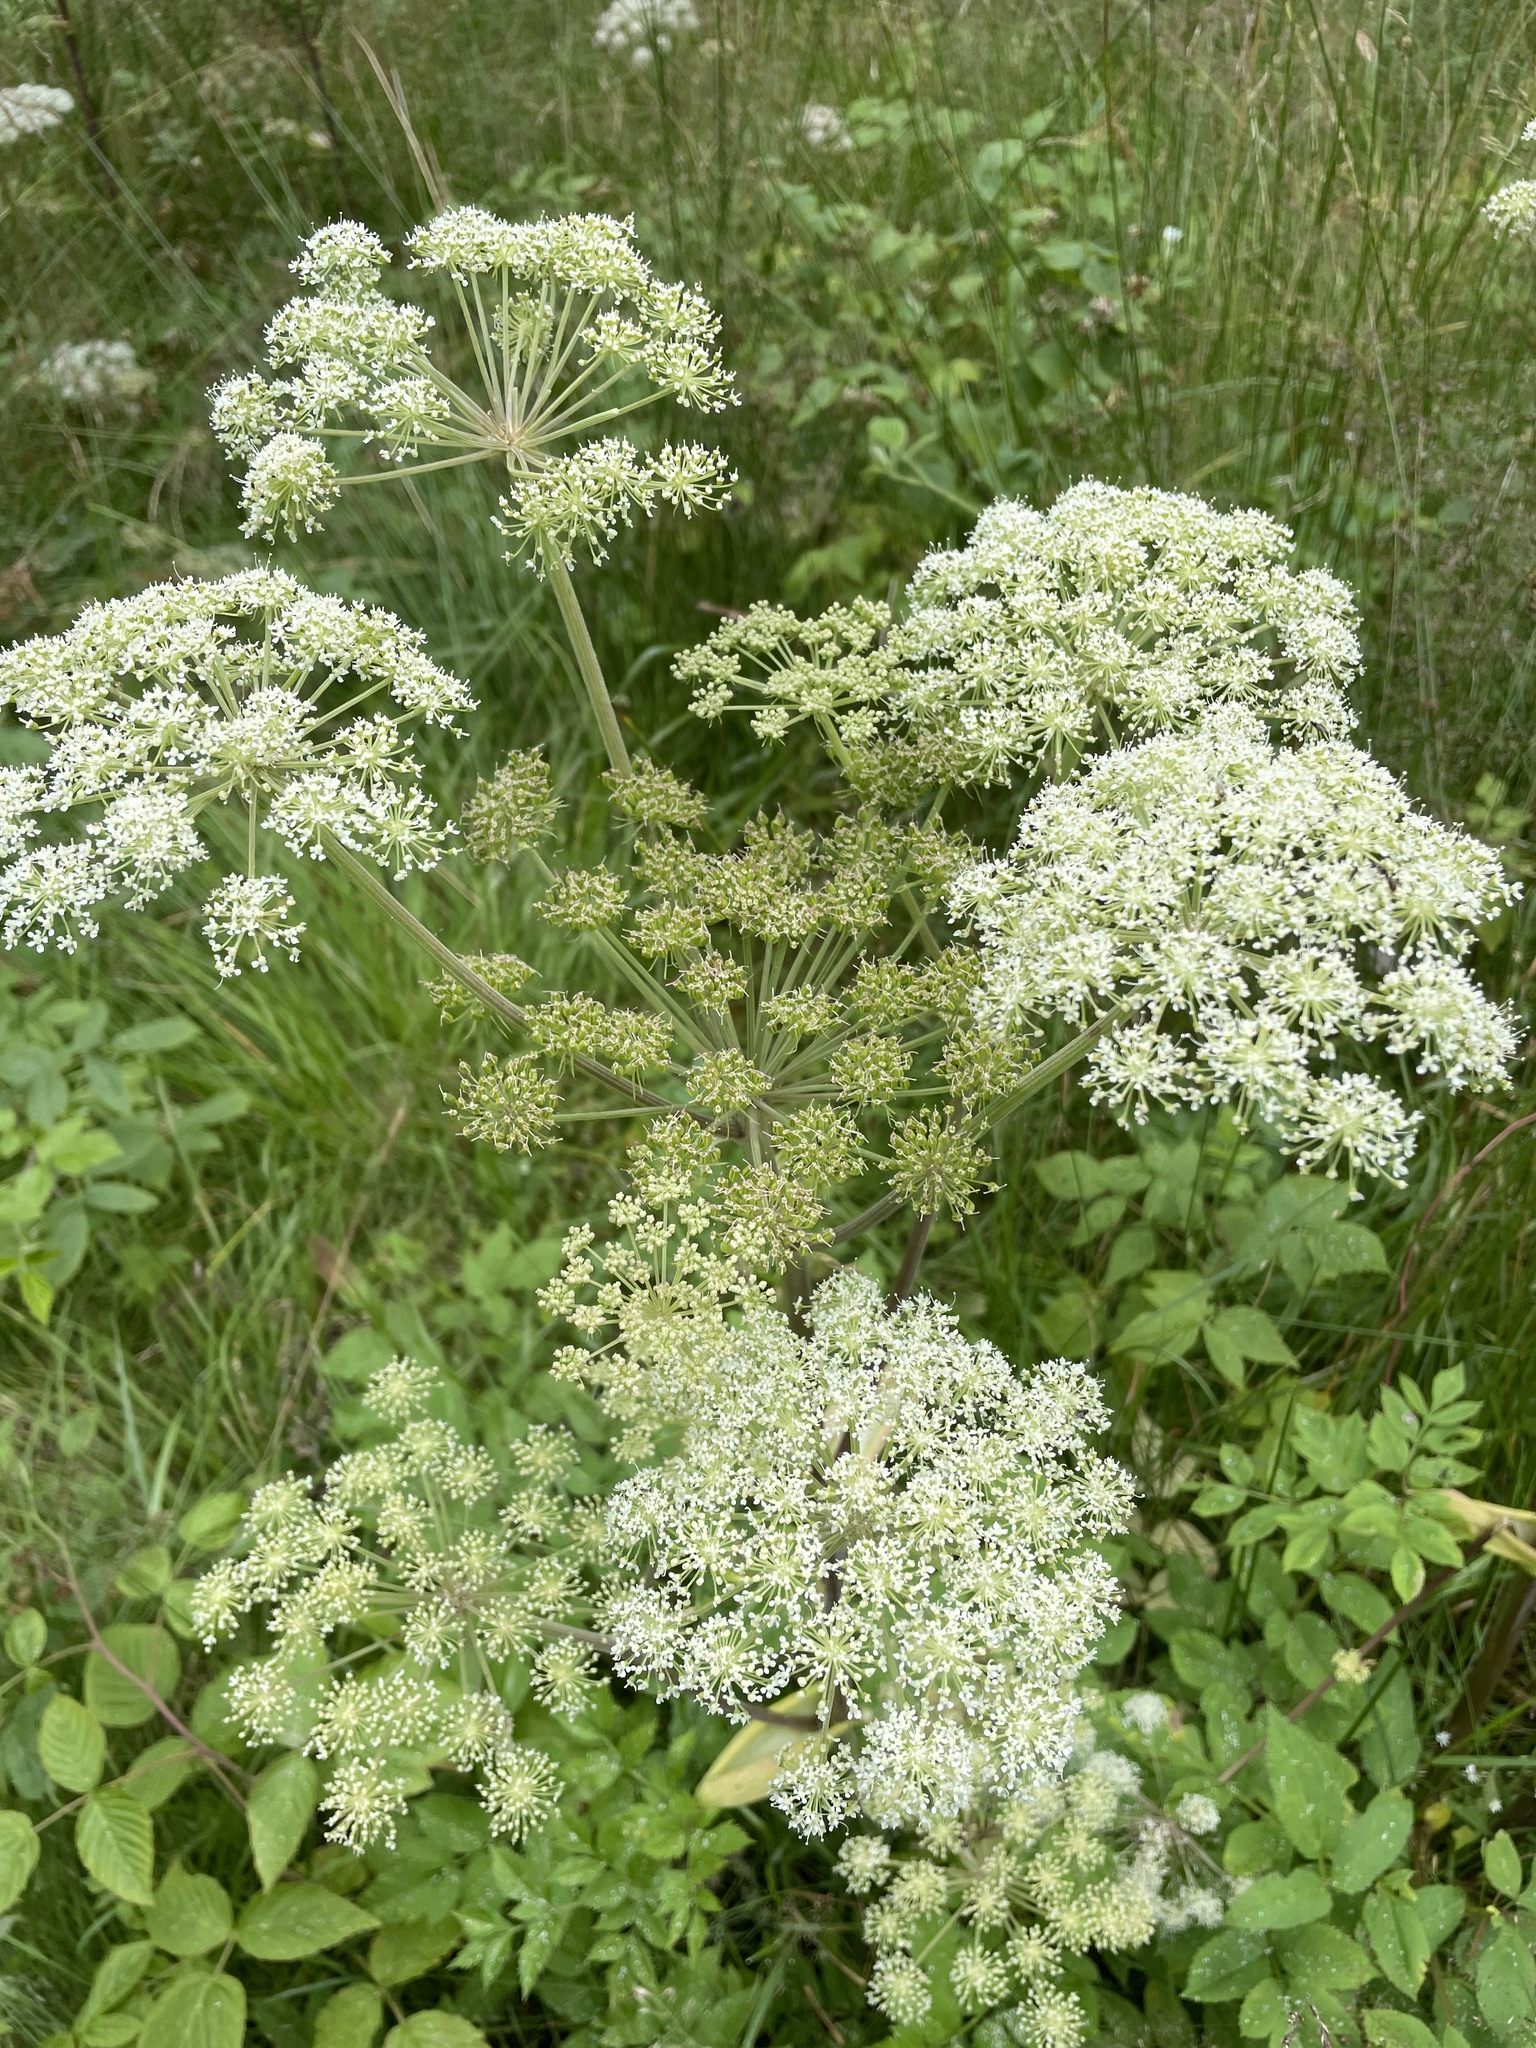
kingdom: Plantae
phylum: Tracheophyta
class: Magnoliopsida
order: Apiales
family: Apiaceae
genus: Angelica
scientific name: Angelica sylvestris
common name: Wild angelica
